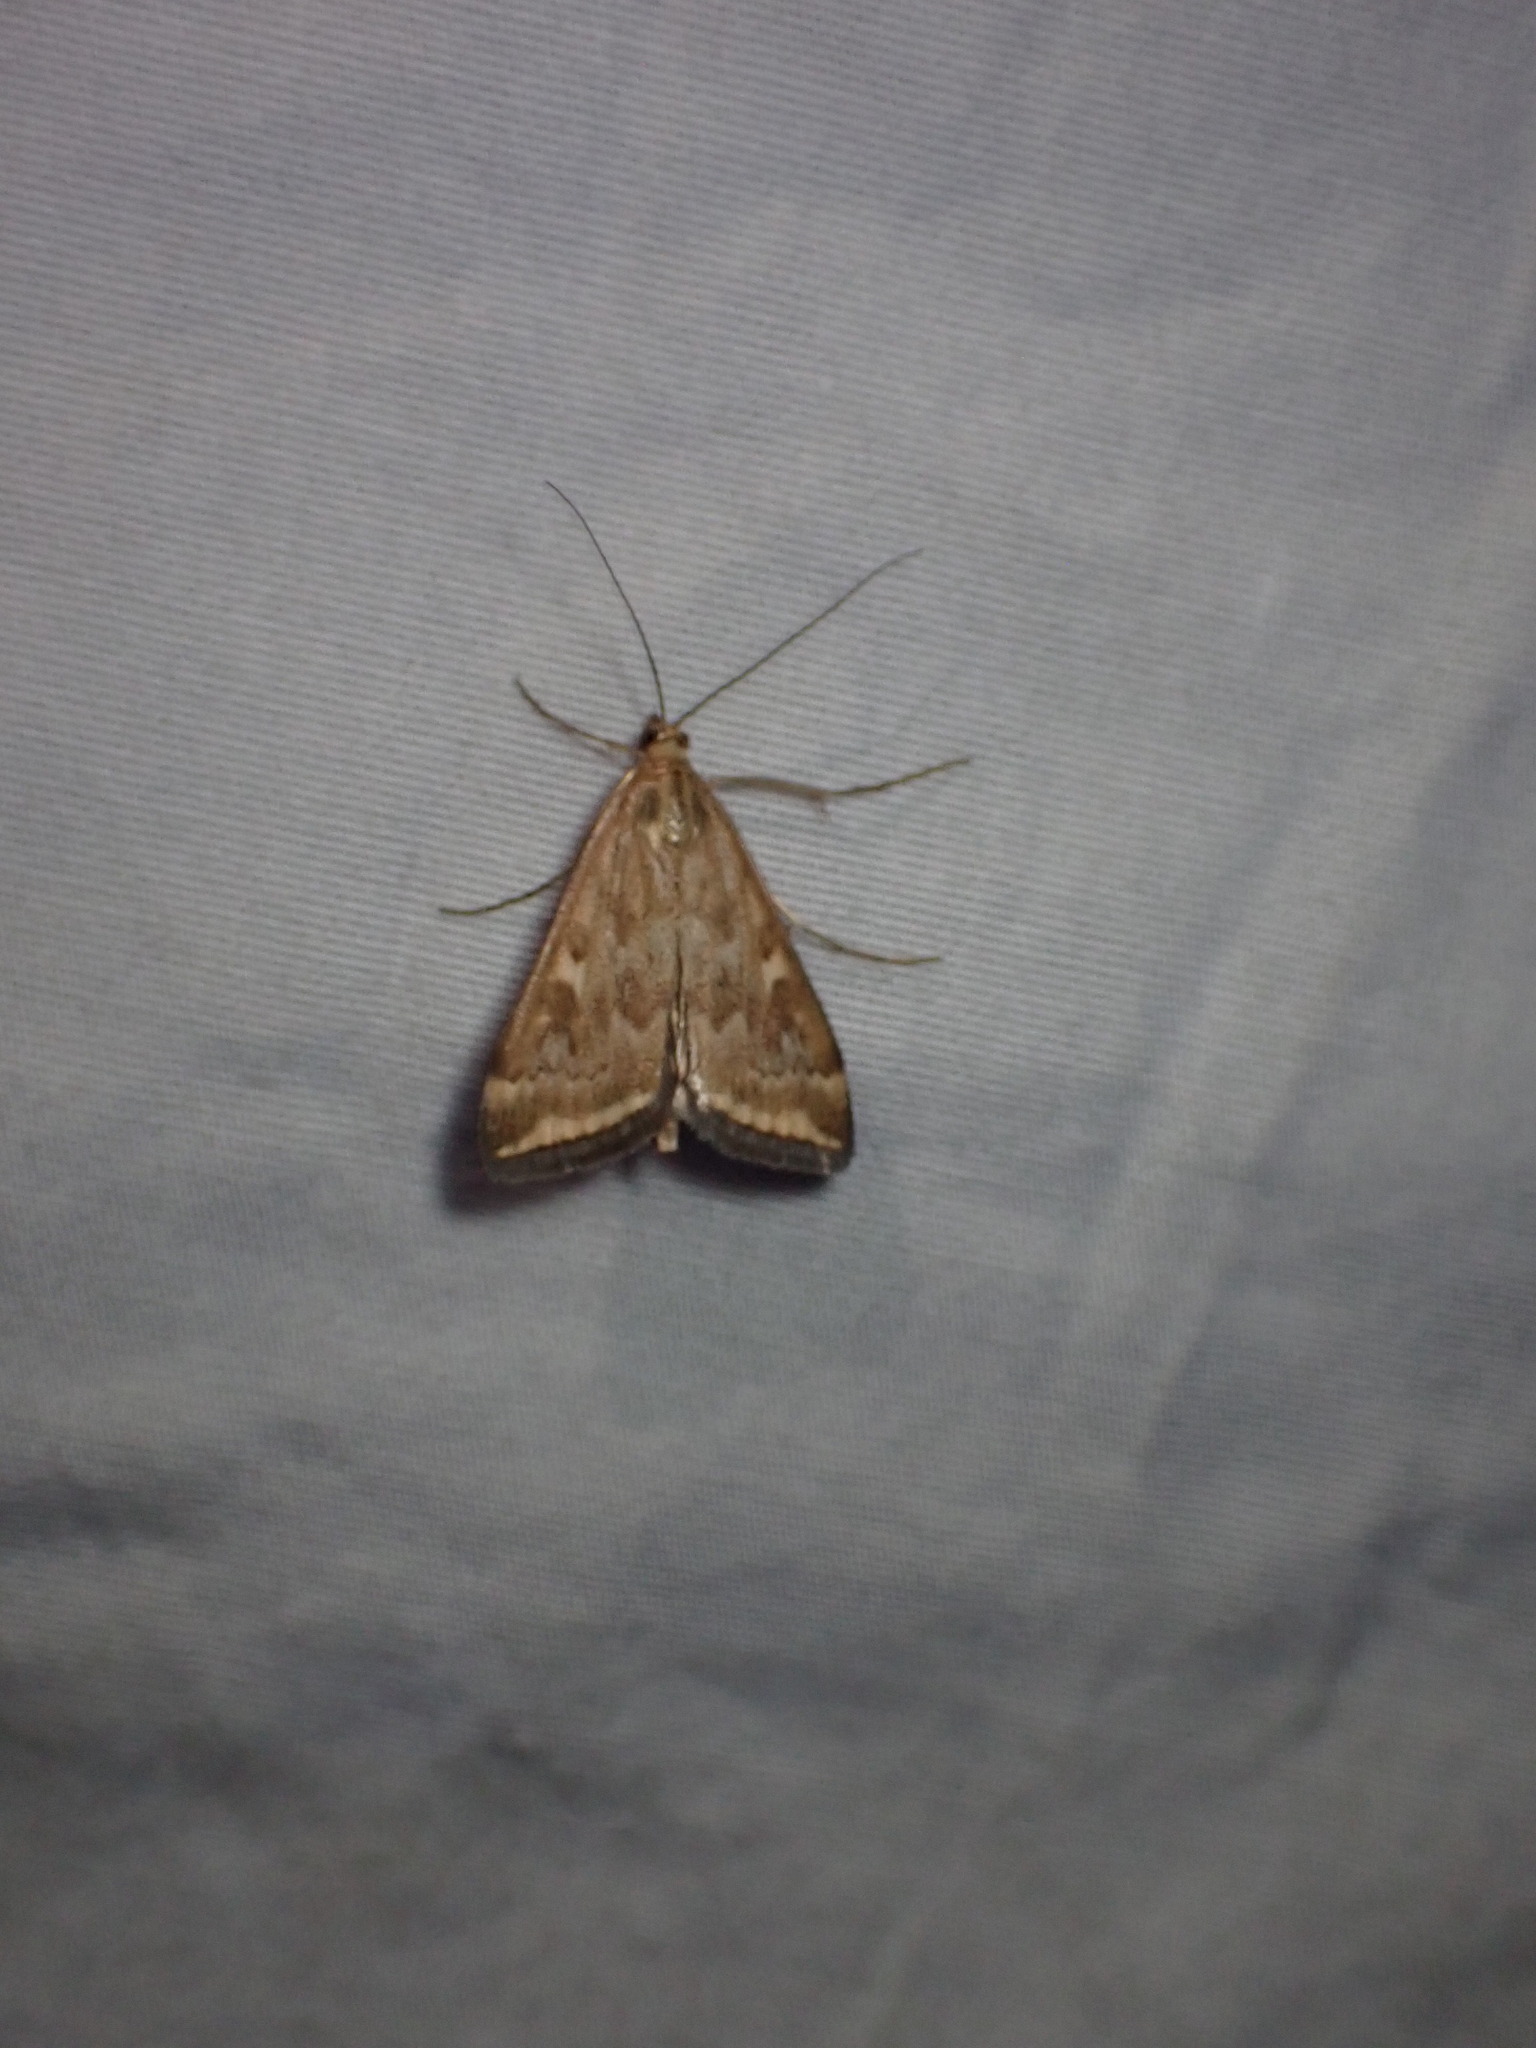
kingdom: Animalia
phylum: Arthropoda
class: Insecta
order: Lepidoptera
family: Crambidae
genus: Loxostege
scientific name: Loxostege
